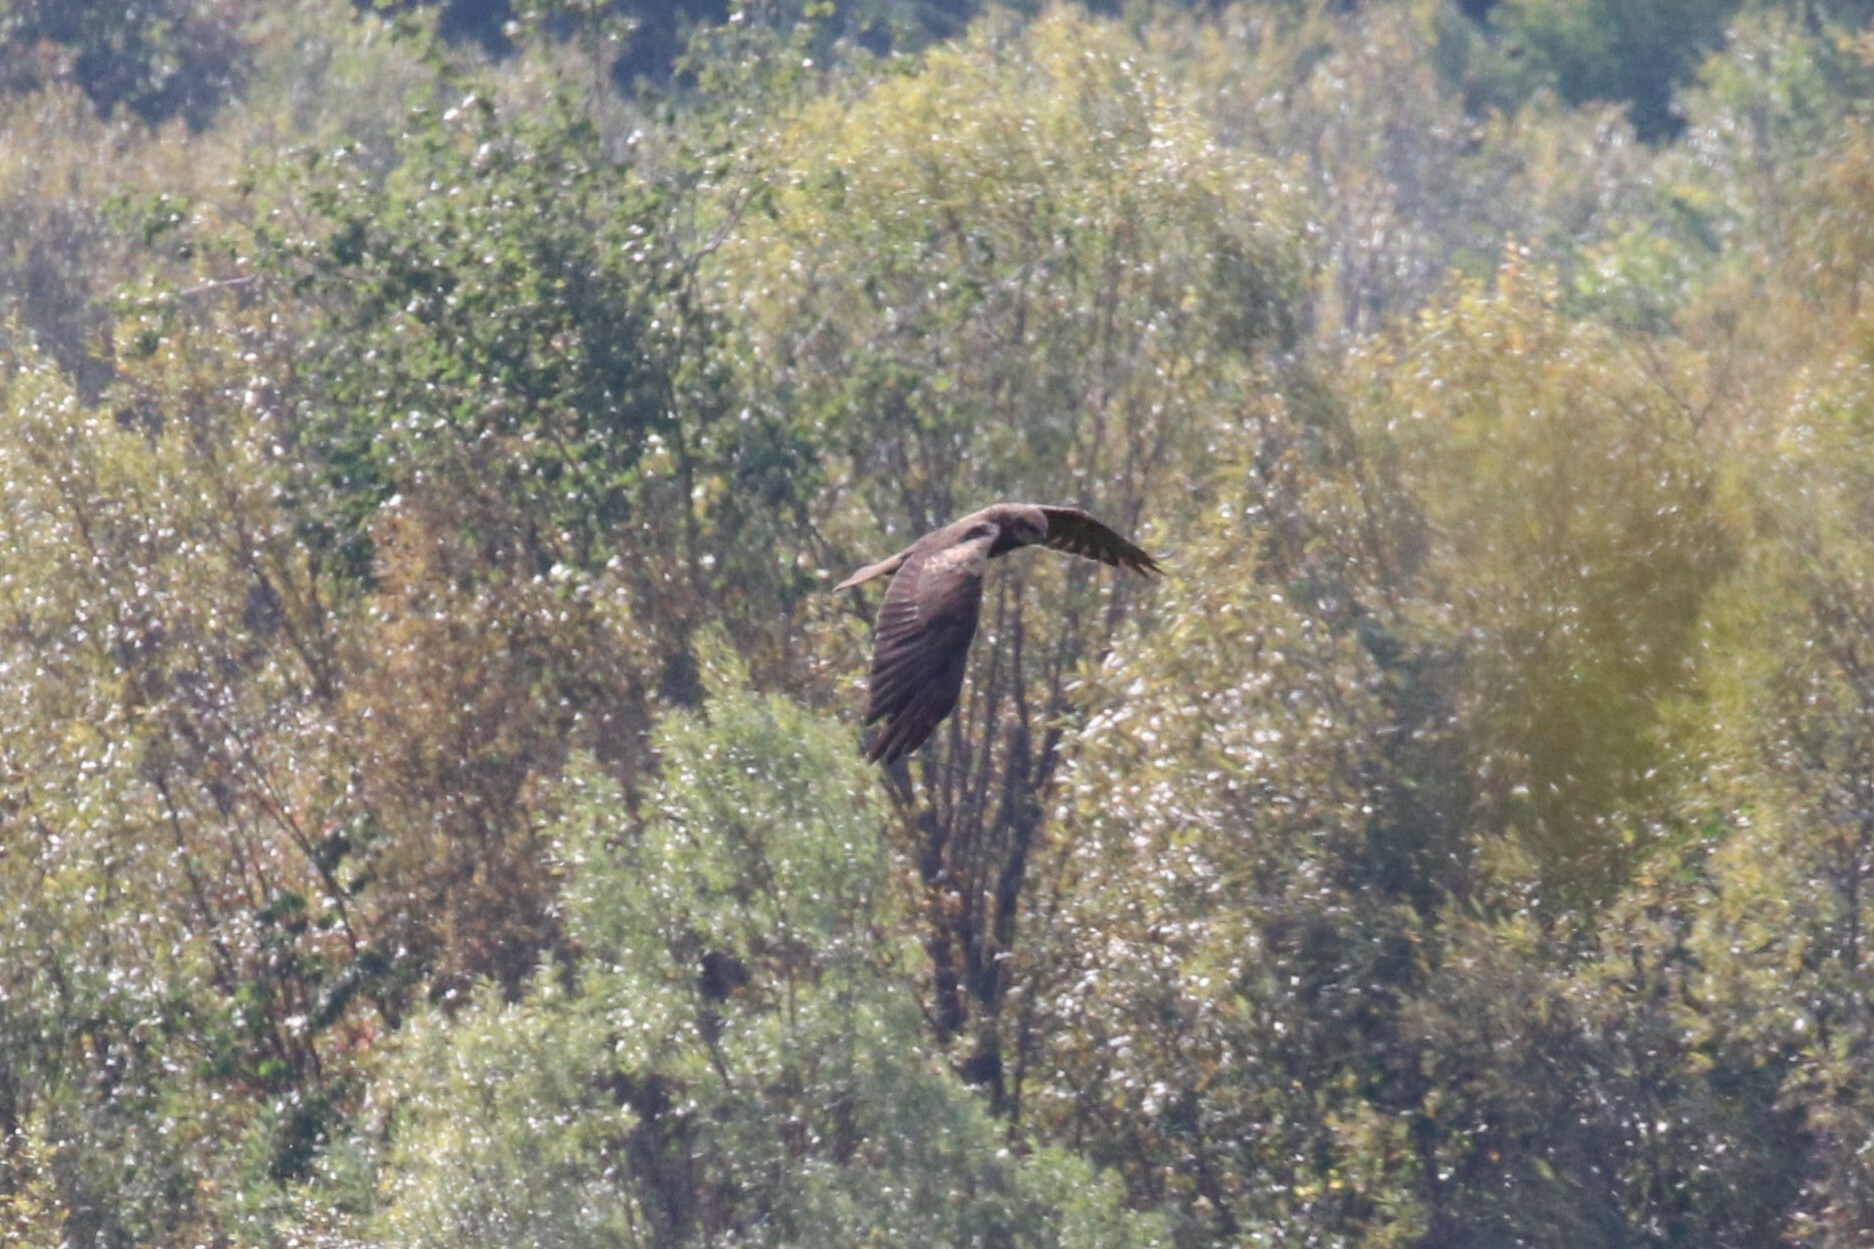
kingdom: Animalia
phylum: Chordata
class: Aves
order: Accipitriformes
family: Accipitridae
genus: Circus
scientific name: Circus aeruginosus
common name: Western marsh harrier
